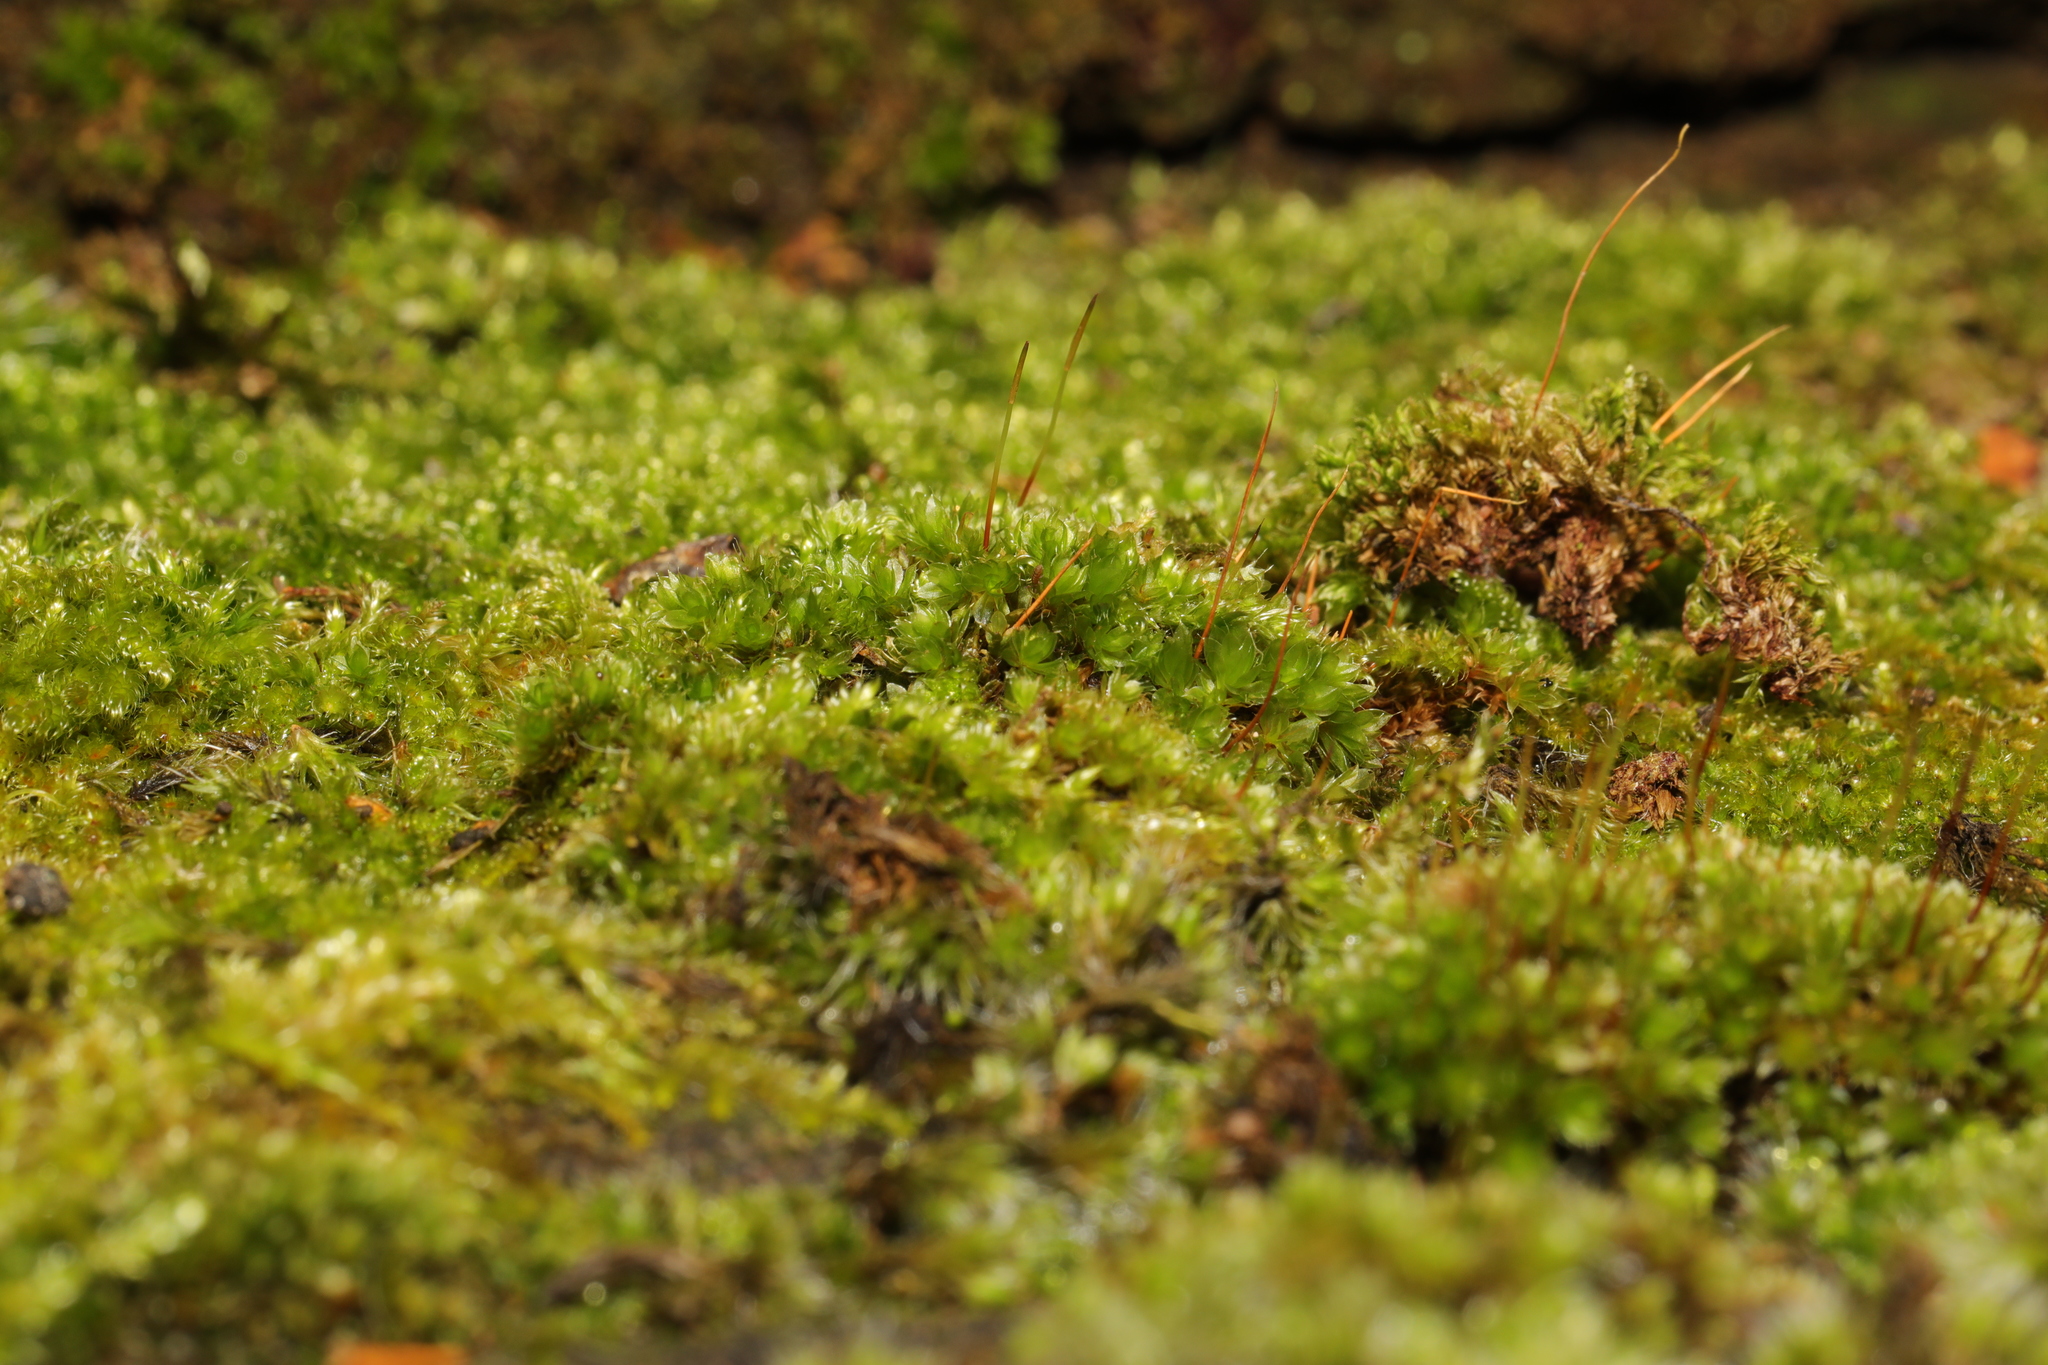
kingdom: Plantae
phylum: Bryophyta
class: Bryopsida
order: Bryales
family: Bryaceae
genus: Rosulabryum
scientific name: Rosulabryum capillare
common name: Capillary thread-moss
